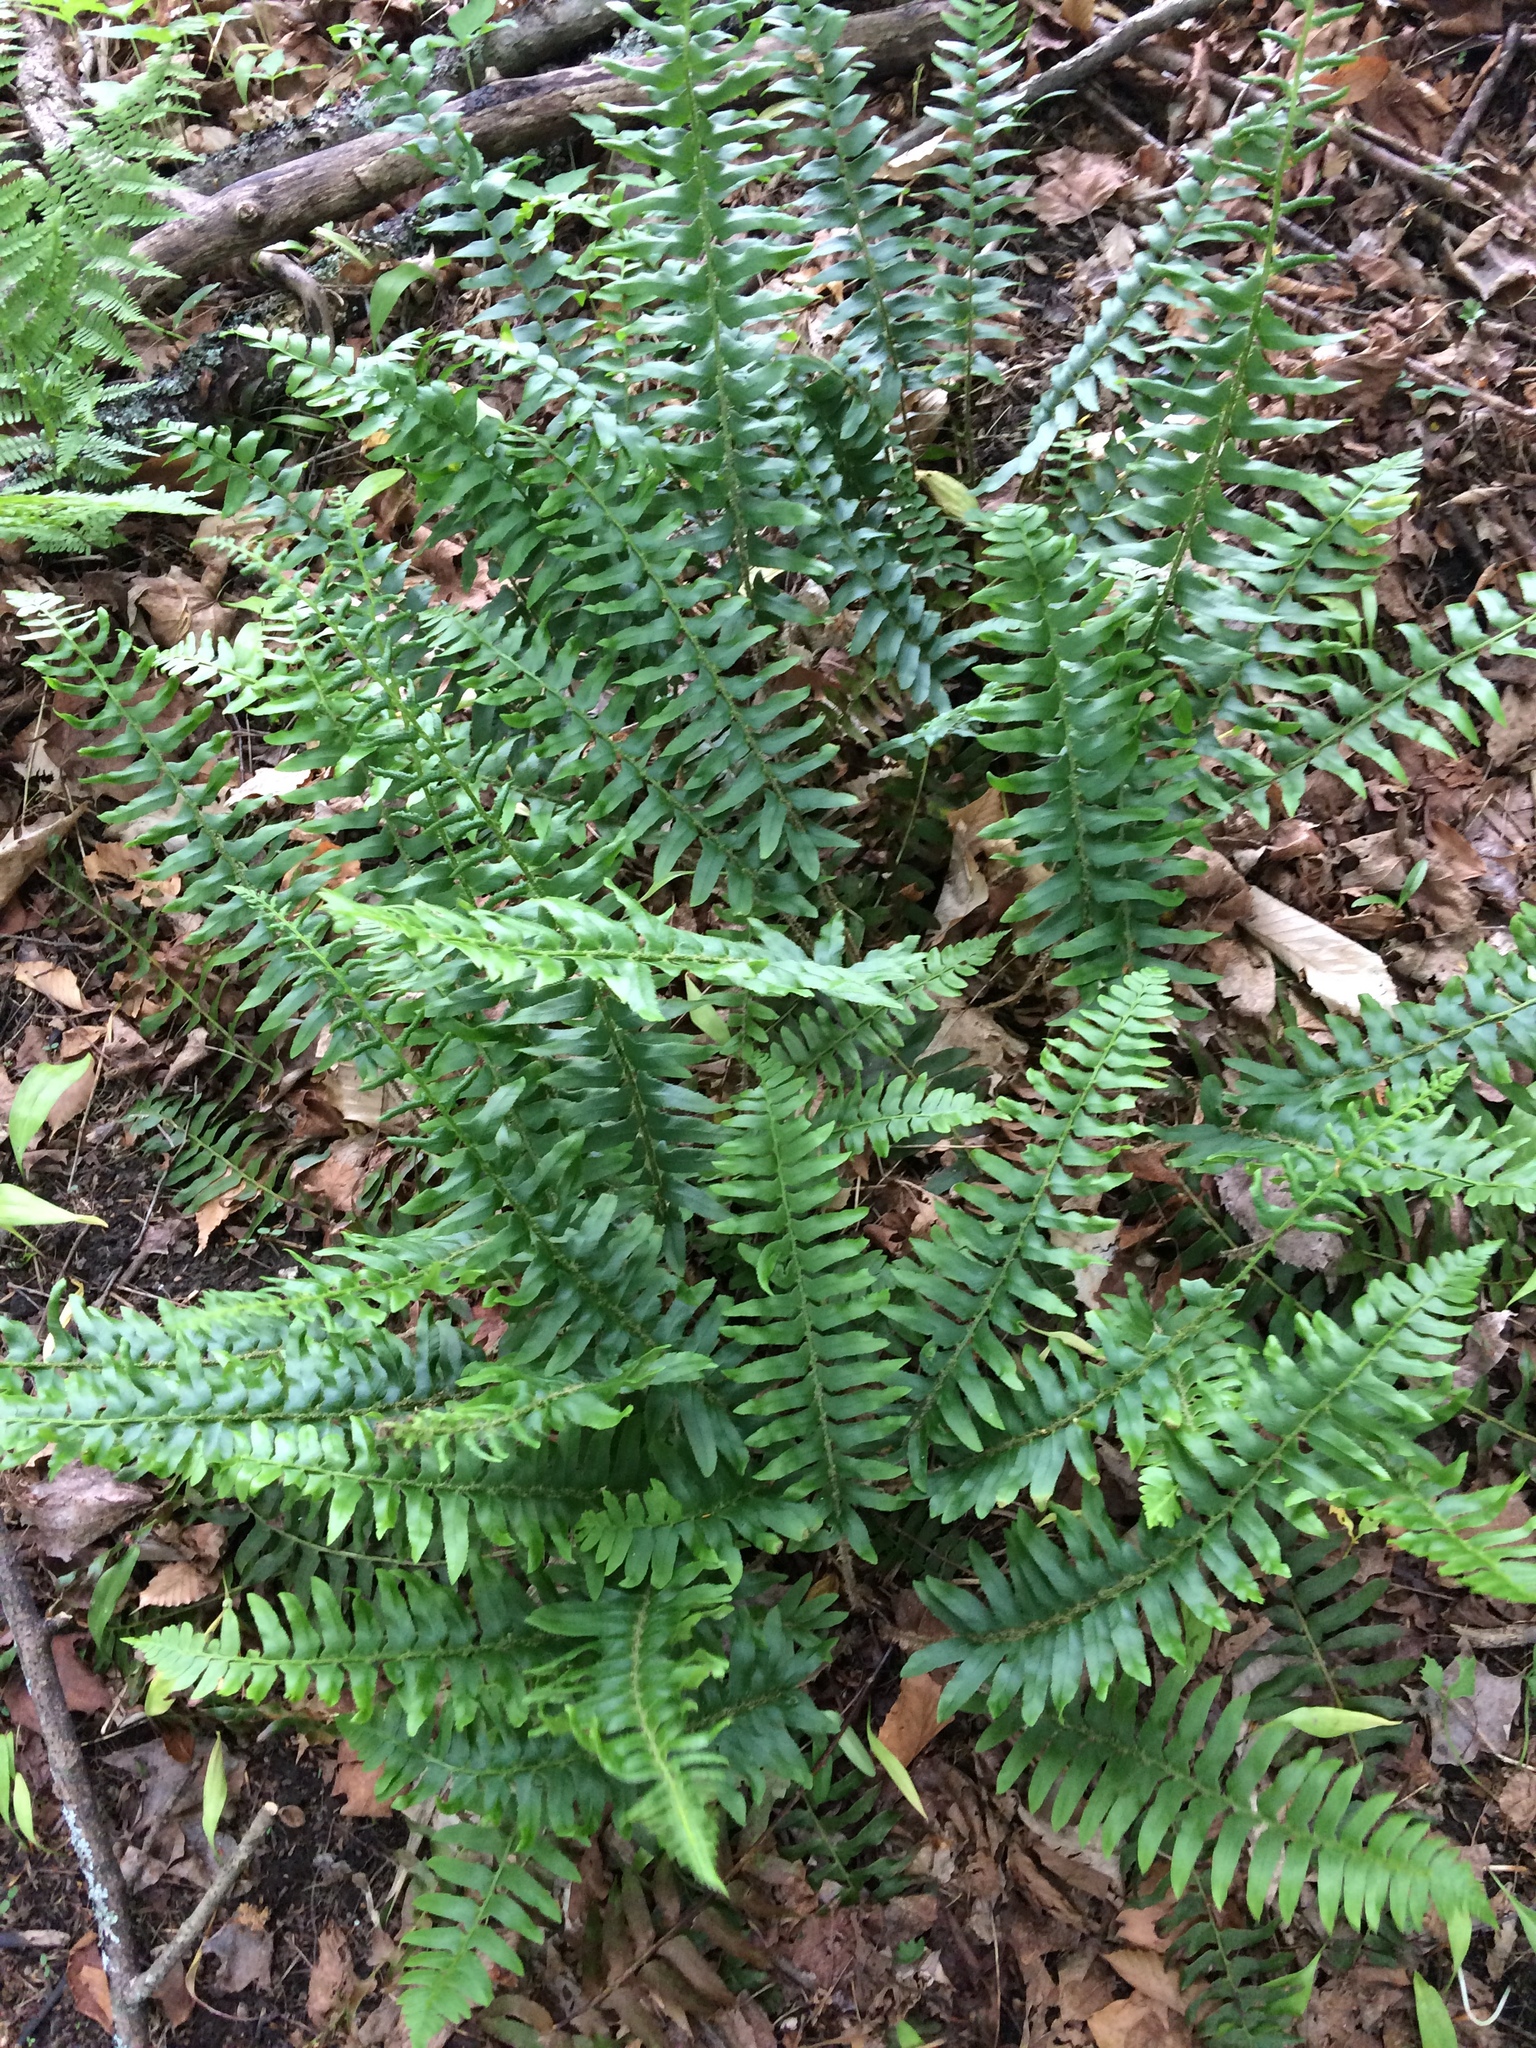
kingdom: Plantae
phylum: Tracheophyta
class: Polypodiopsida
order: Polypodiales
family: Dryopteridaceae
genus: Polystichum
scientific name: Polystichum acrostichoides
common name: Christmas fern
